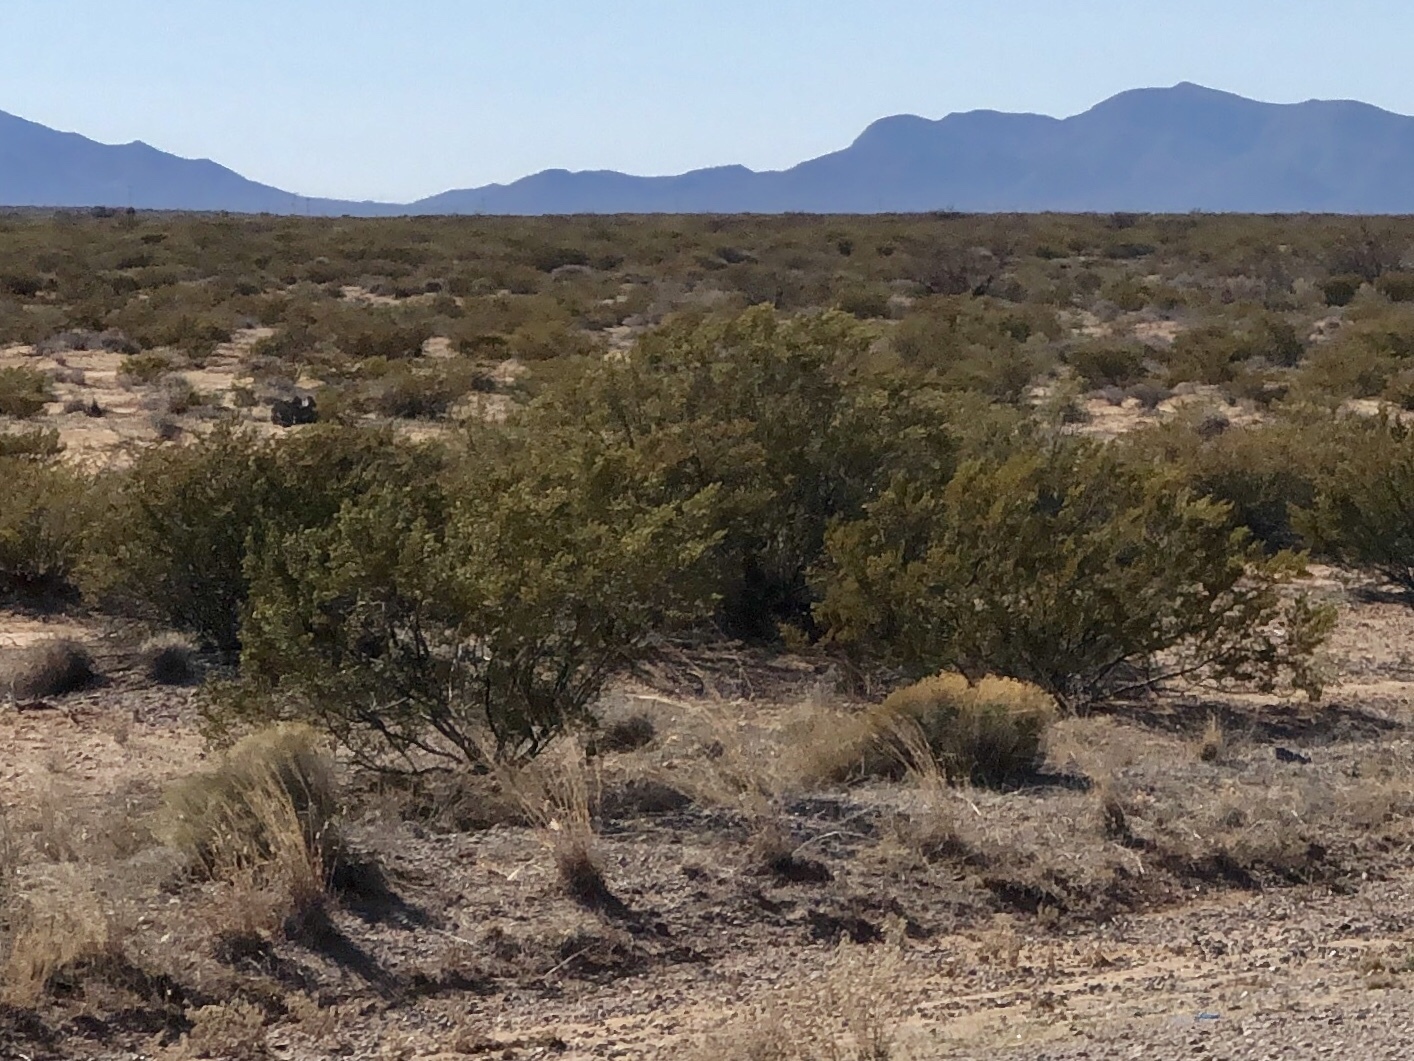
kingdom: Plantae
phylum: Tracheophyta
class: Magnoliopsida
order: Zygophyllales
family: Zygophyllaceae
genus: Larrea
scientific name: Larrea tridentata
